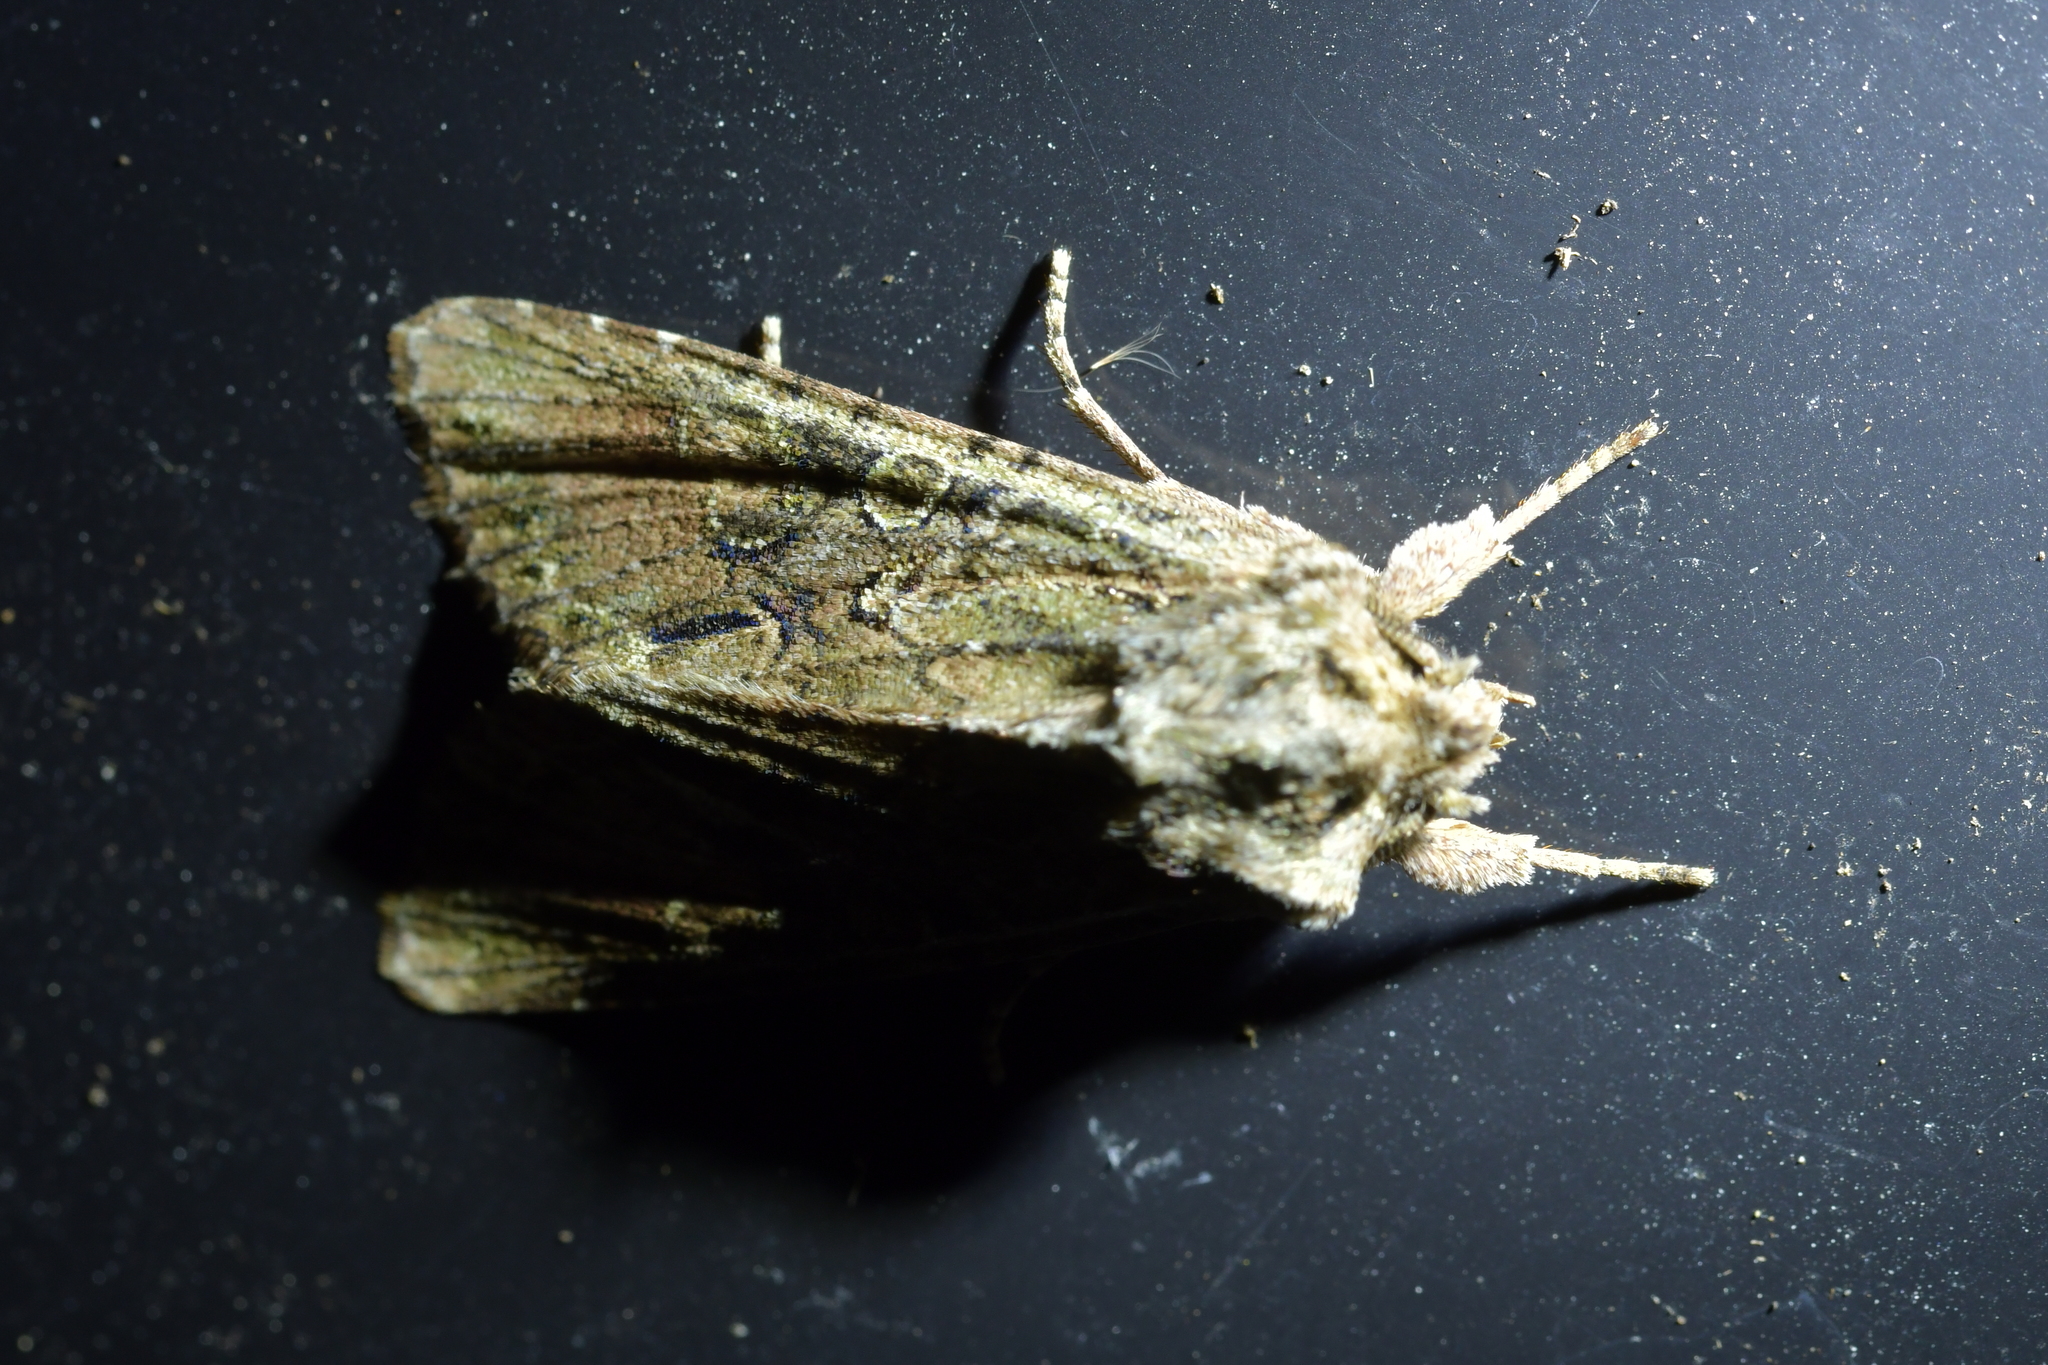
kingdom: Animalia
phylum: Arthropoda
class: Insecta
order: Lepidoptera
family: Noctuidae
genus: Ichneutica
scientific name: Ichneutica mutans
